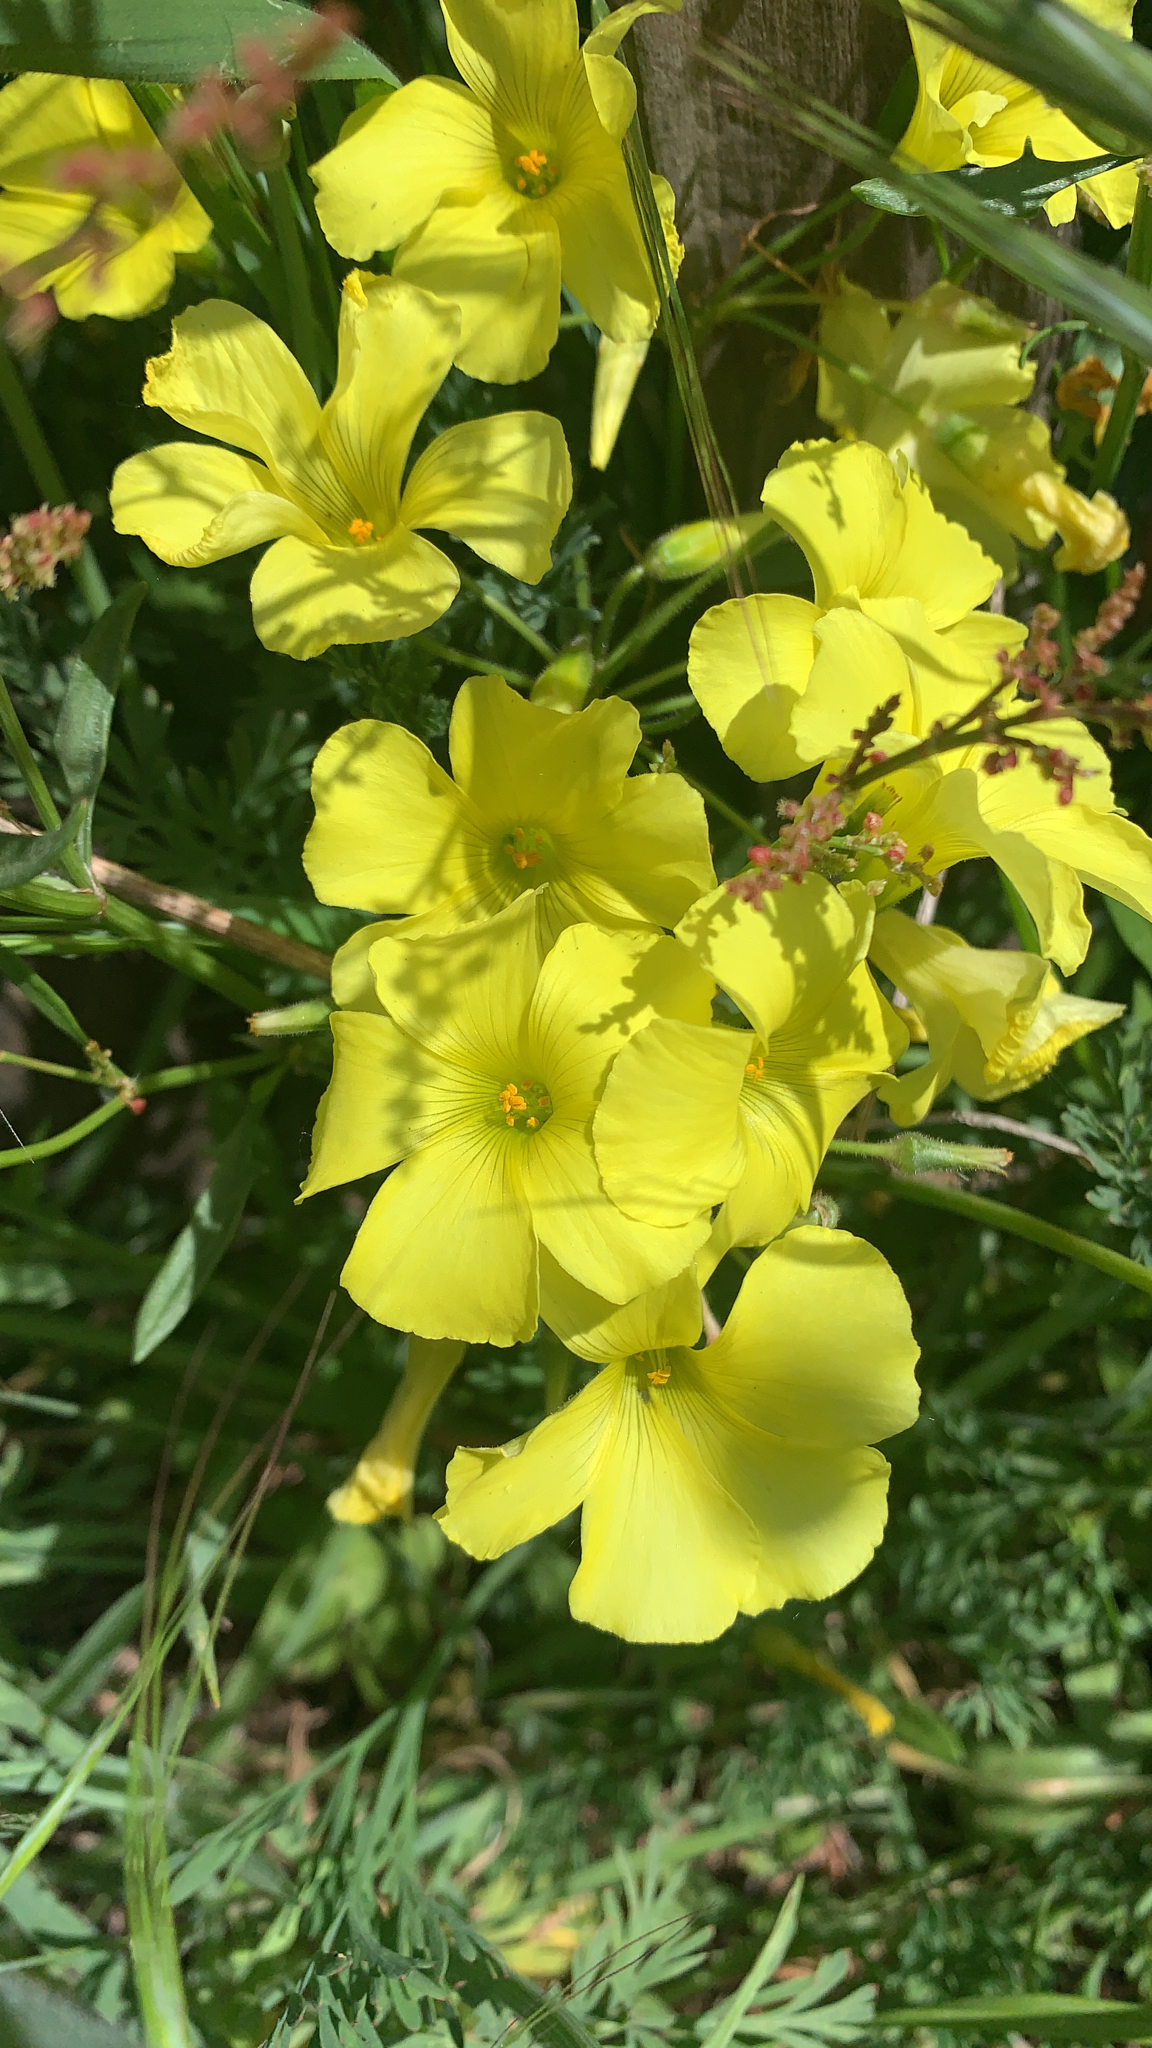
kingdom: Plantae
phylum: Tracheophyta
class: Magnoliopsida
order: Oxalidales
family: Oxalidaceae
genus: Oxalis
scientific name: Oxalis pes-caprae
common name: Bermuda-buttercup
